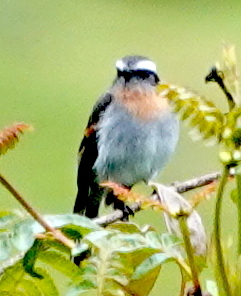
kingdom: Animalia
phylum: Chordata
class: Aves
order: Passeriformes
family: Tyrannidae
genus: Ochthoeca
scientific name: Ochthoeca rufipectoralis
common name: Rufous-breasted chat-tyrant
